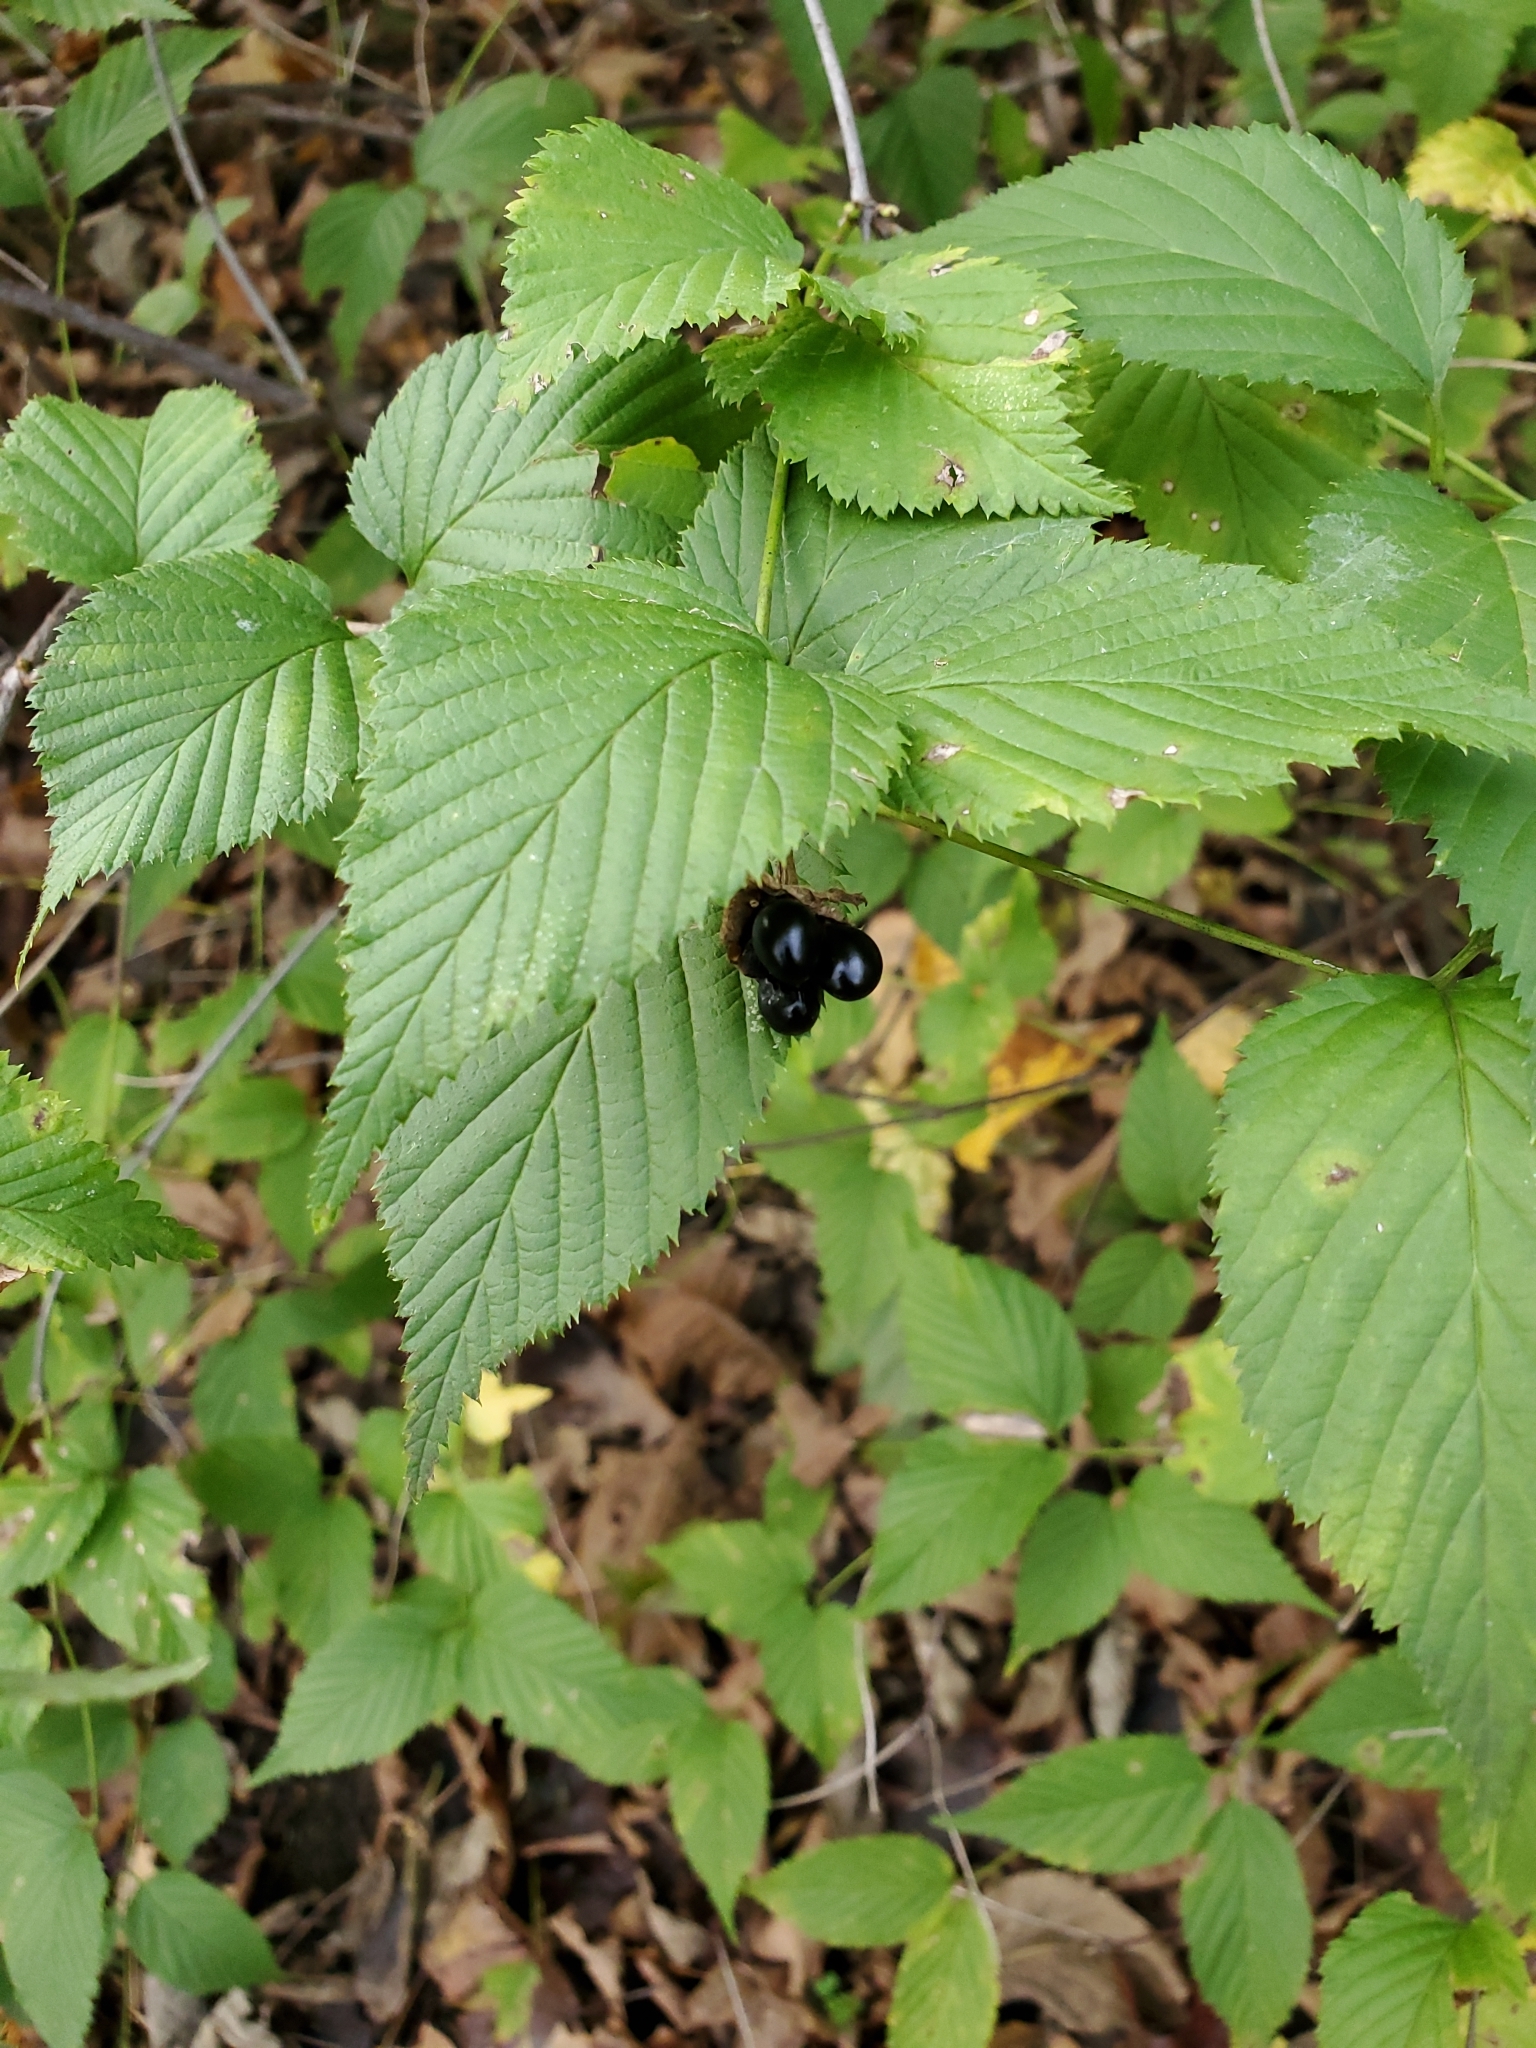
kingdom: Plantae
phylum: Tracheophyta
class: Magnoliopsida
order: Rosales
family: Rosaceae
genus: Rhodotypos
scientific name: Rhodotypos scandens
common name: Jetbead
